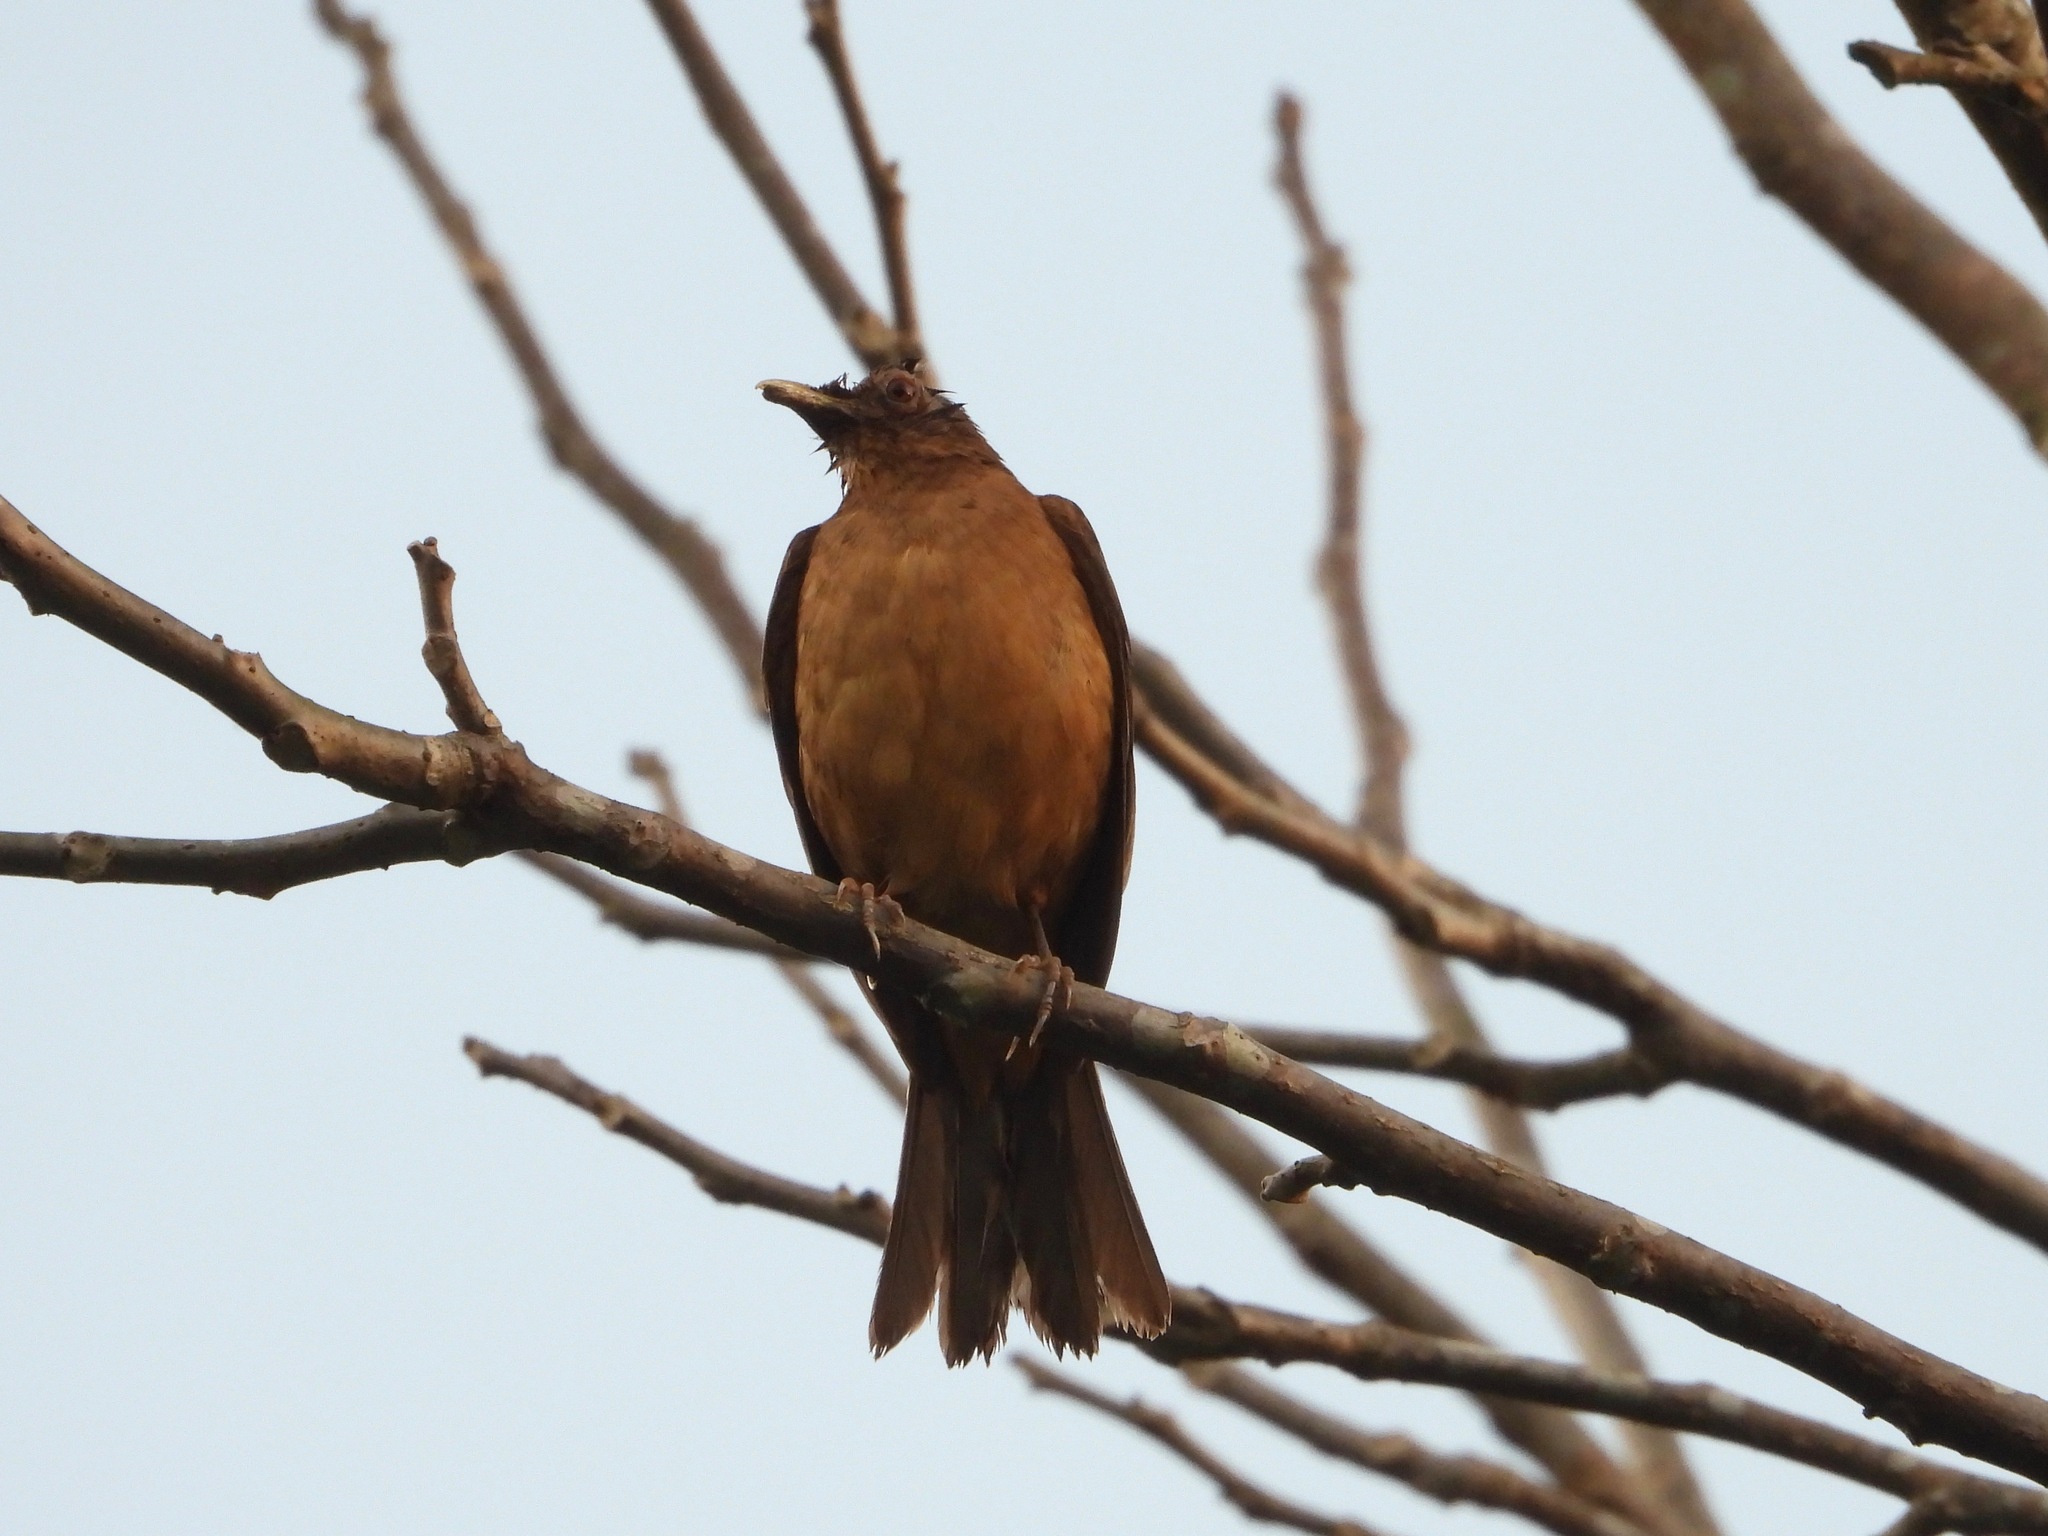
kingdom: Animalia
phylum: Chordata
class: Aves
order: Passeriformes
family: Turdidae
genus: Turdus
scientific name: Turdus grayi
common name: Clay-colored thrush
